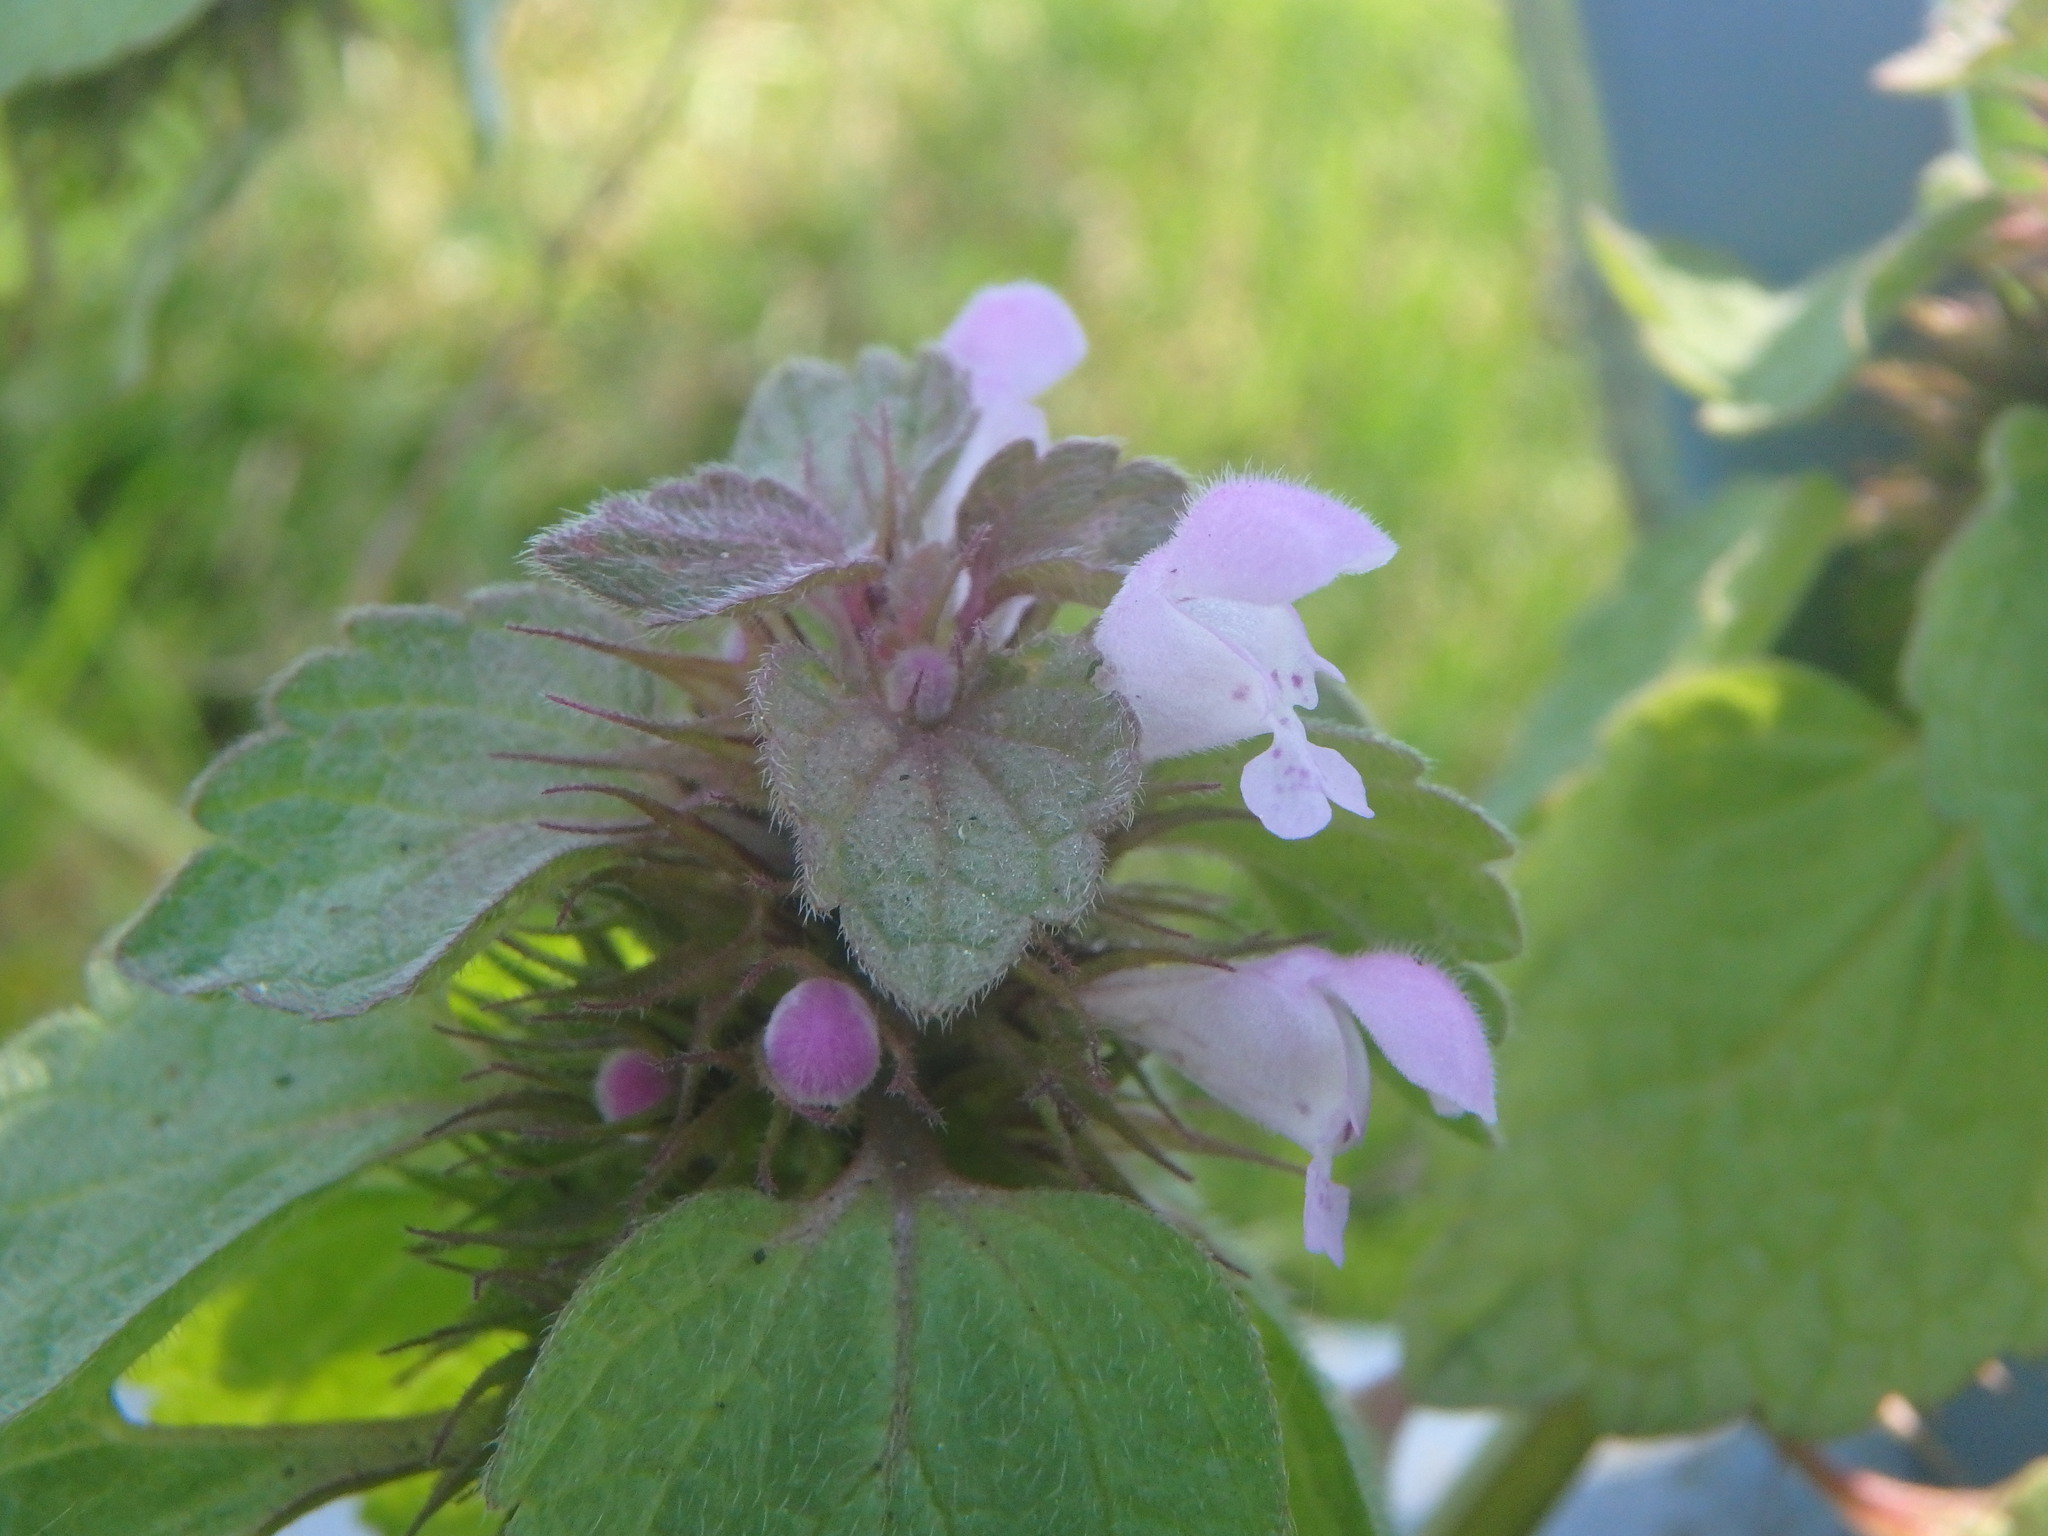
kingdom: Plantae
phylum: Tracheophyta
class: Magnoliopsida
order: Lamiales
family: Lamiaceae
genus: Lamium
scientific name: Lamium purpureum
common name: Red dead-nettle
